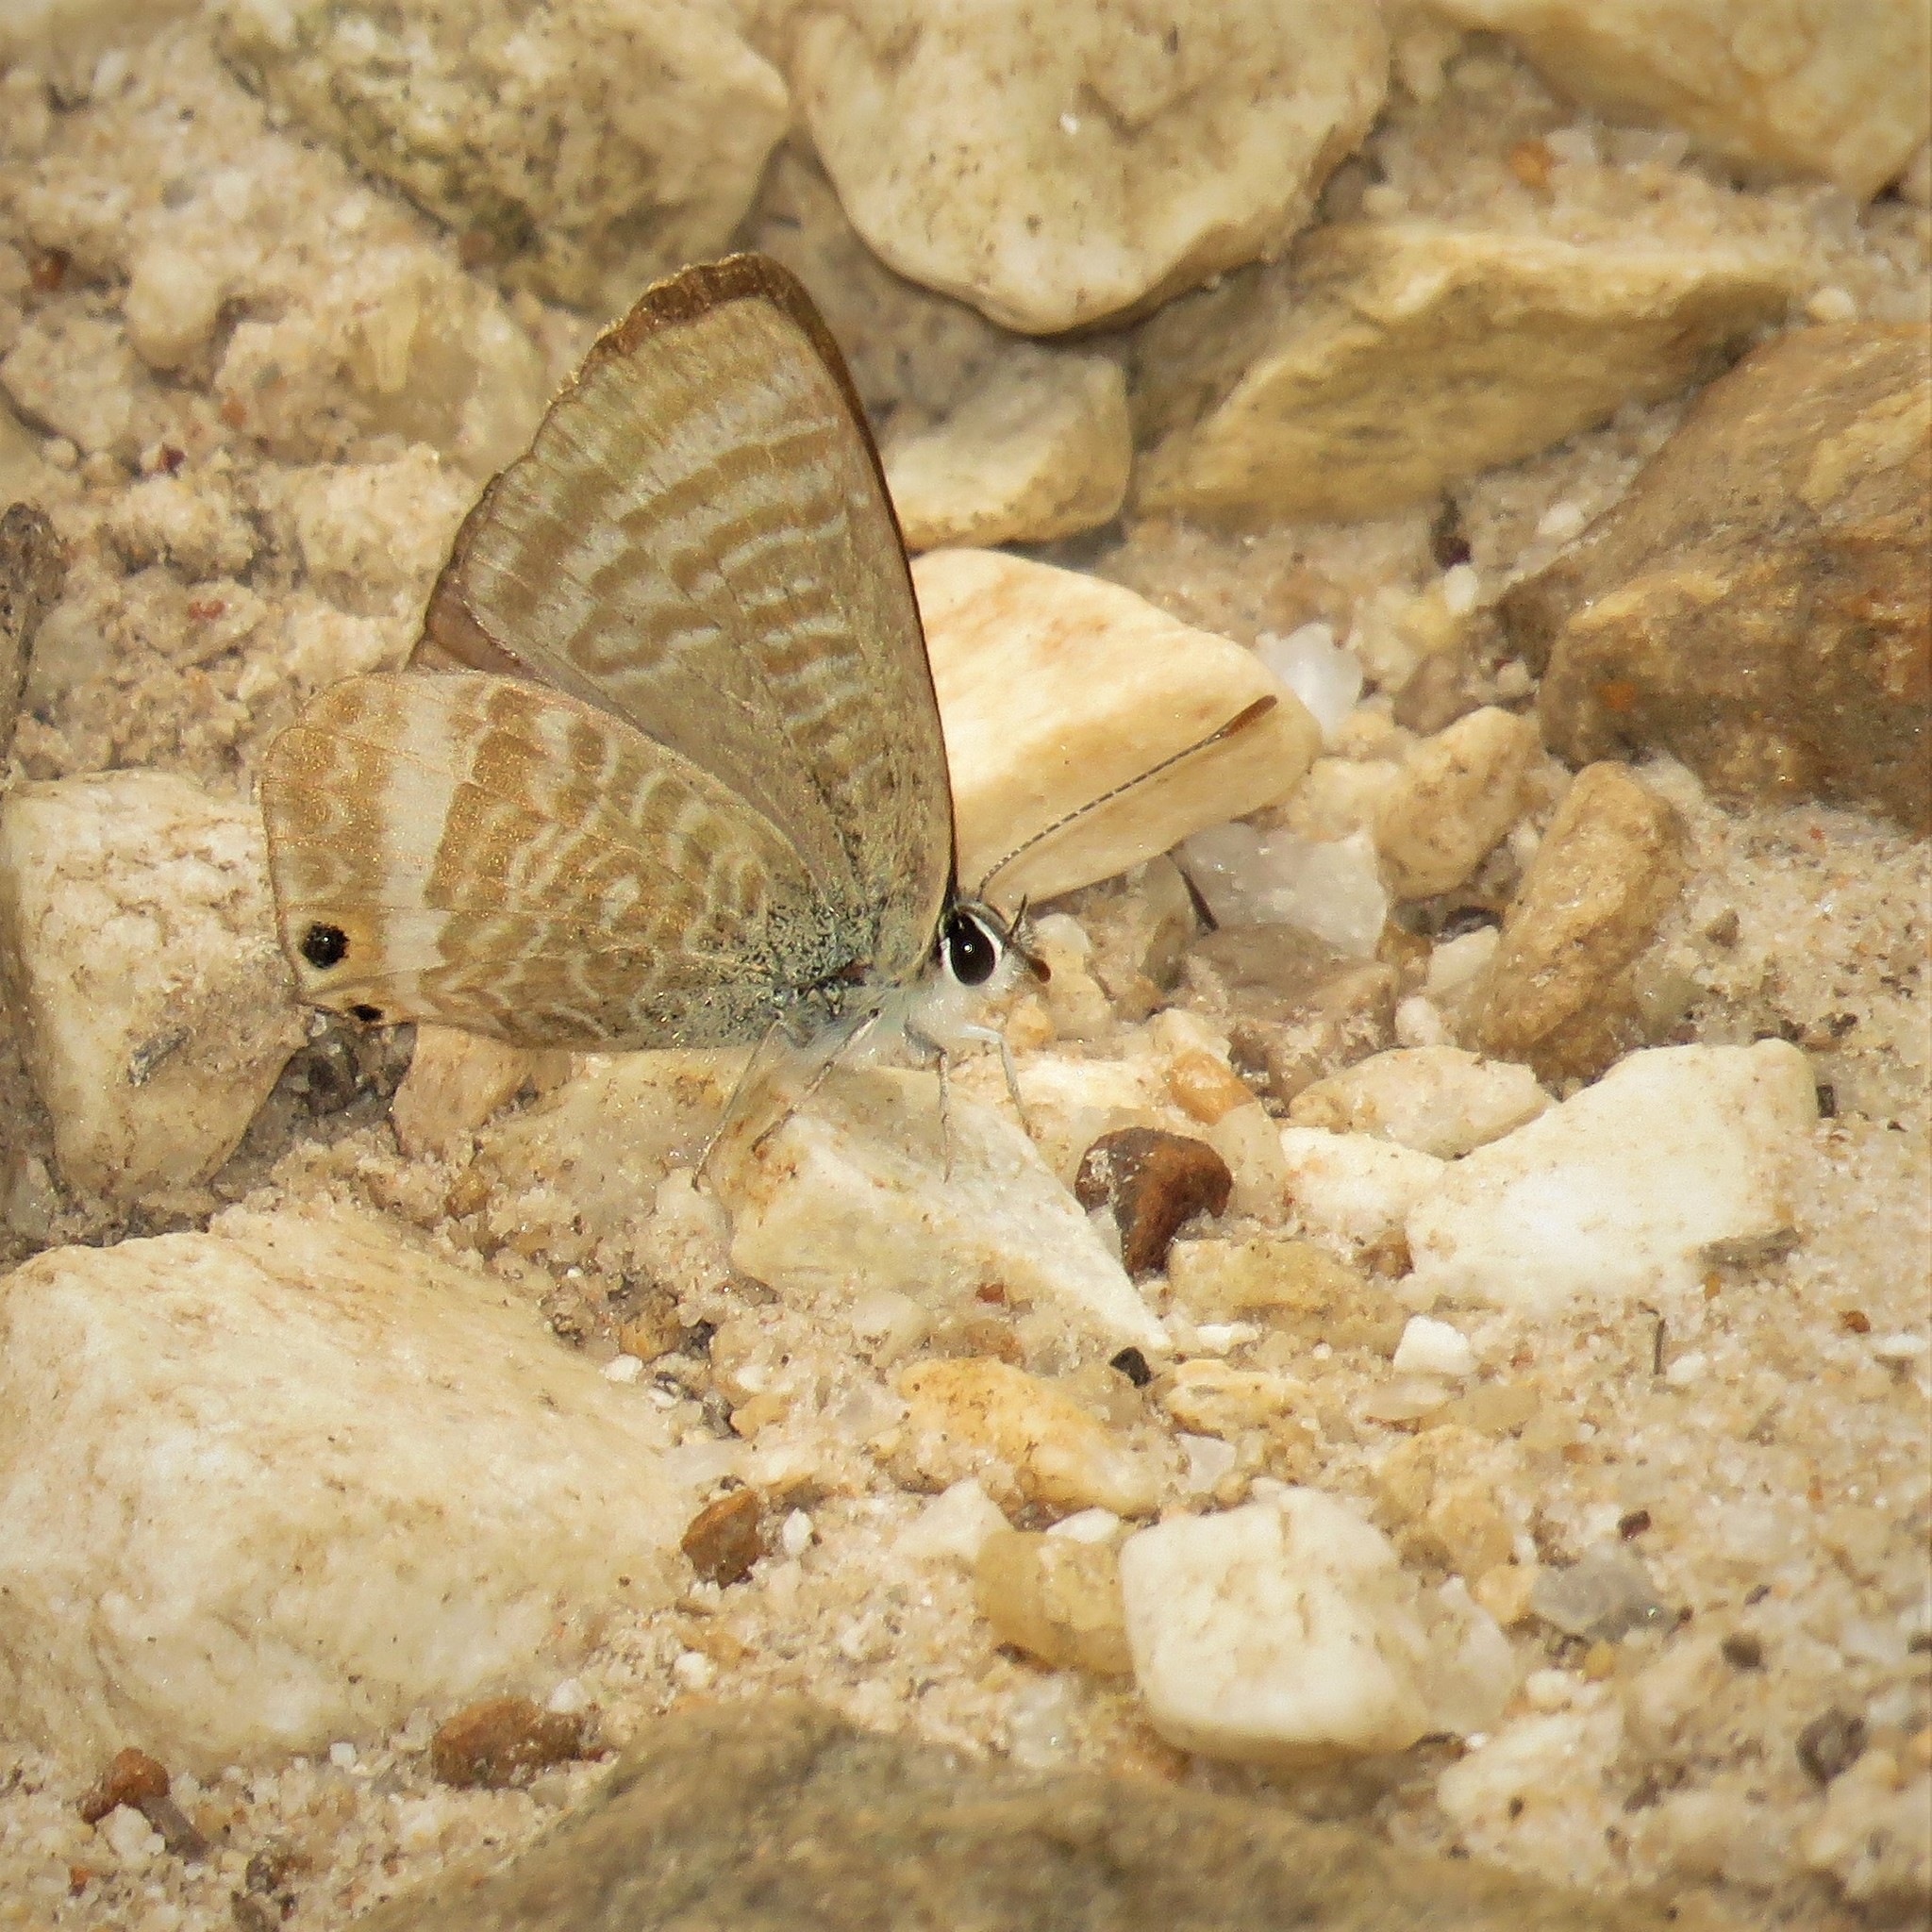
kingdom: Animalia
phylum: Arthropoda
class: Insecta
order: Lepidoptera
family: Lycaenidae
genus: Lampides
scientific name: Lampides boeticus
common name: Long-tailed blue
